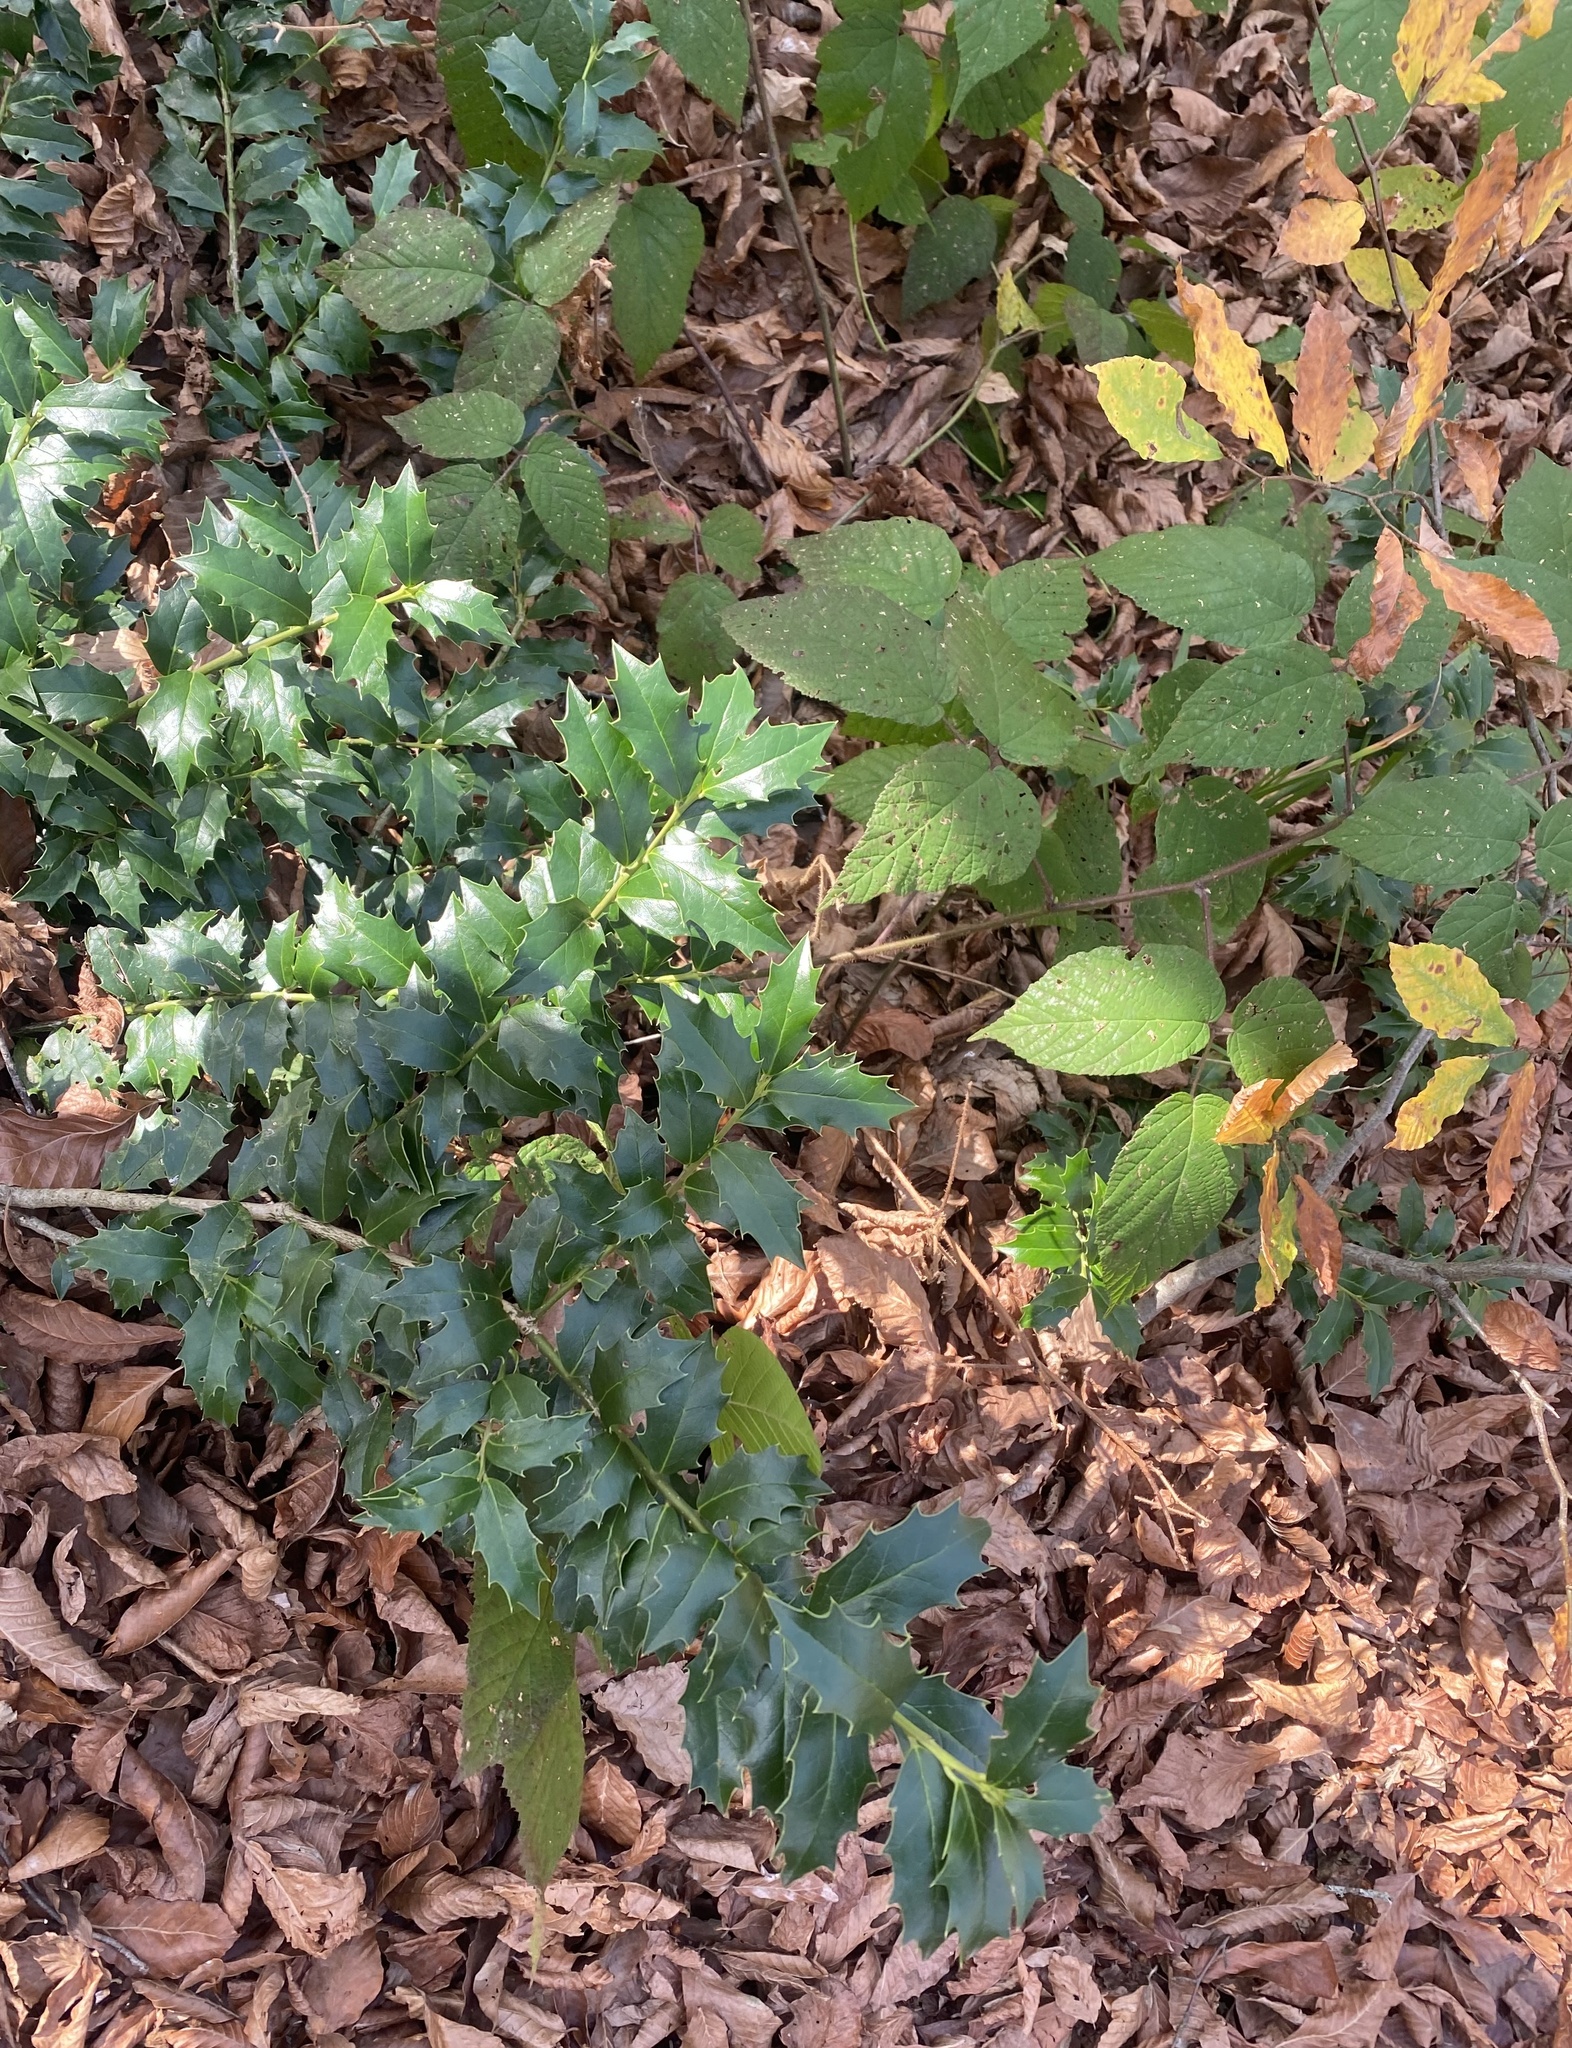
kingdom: Plantae
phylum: Tracheophyta
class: Magnoliopsida
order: Aquifoliales
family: Aquifoliaceae
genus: Ilex
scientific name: Ilex colchica
